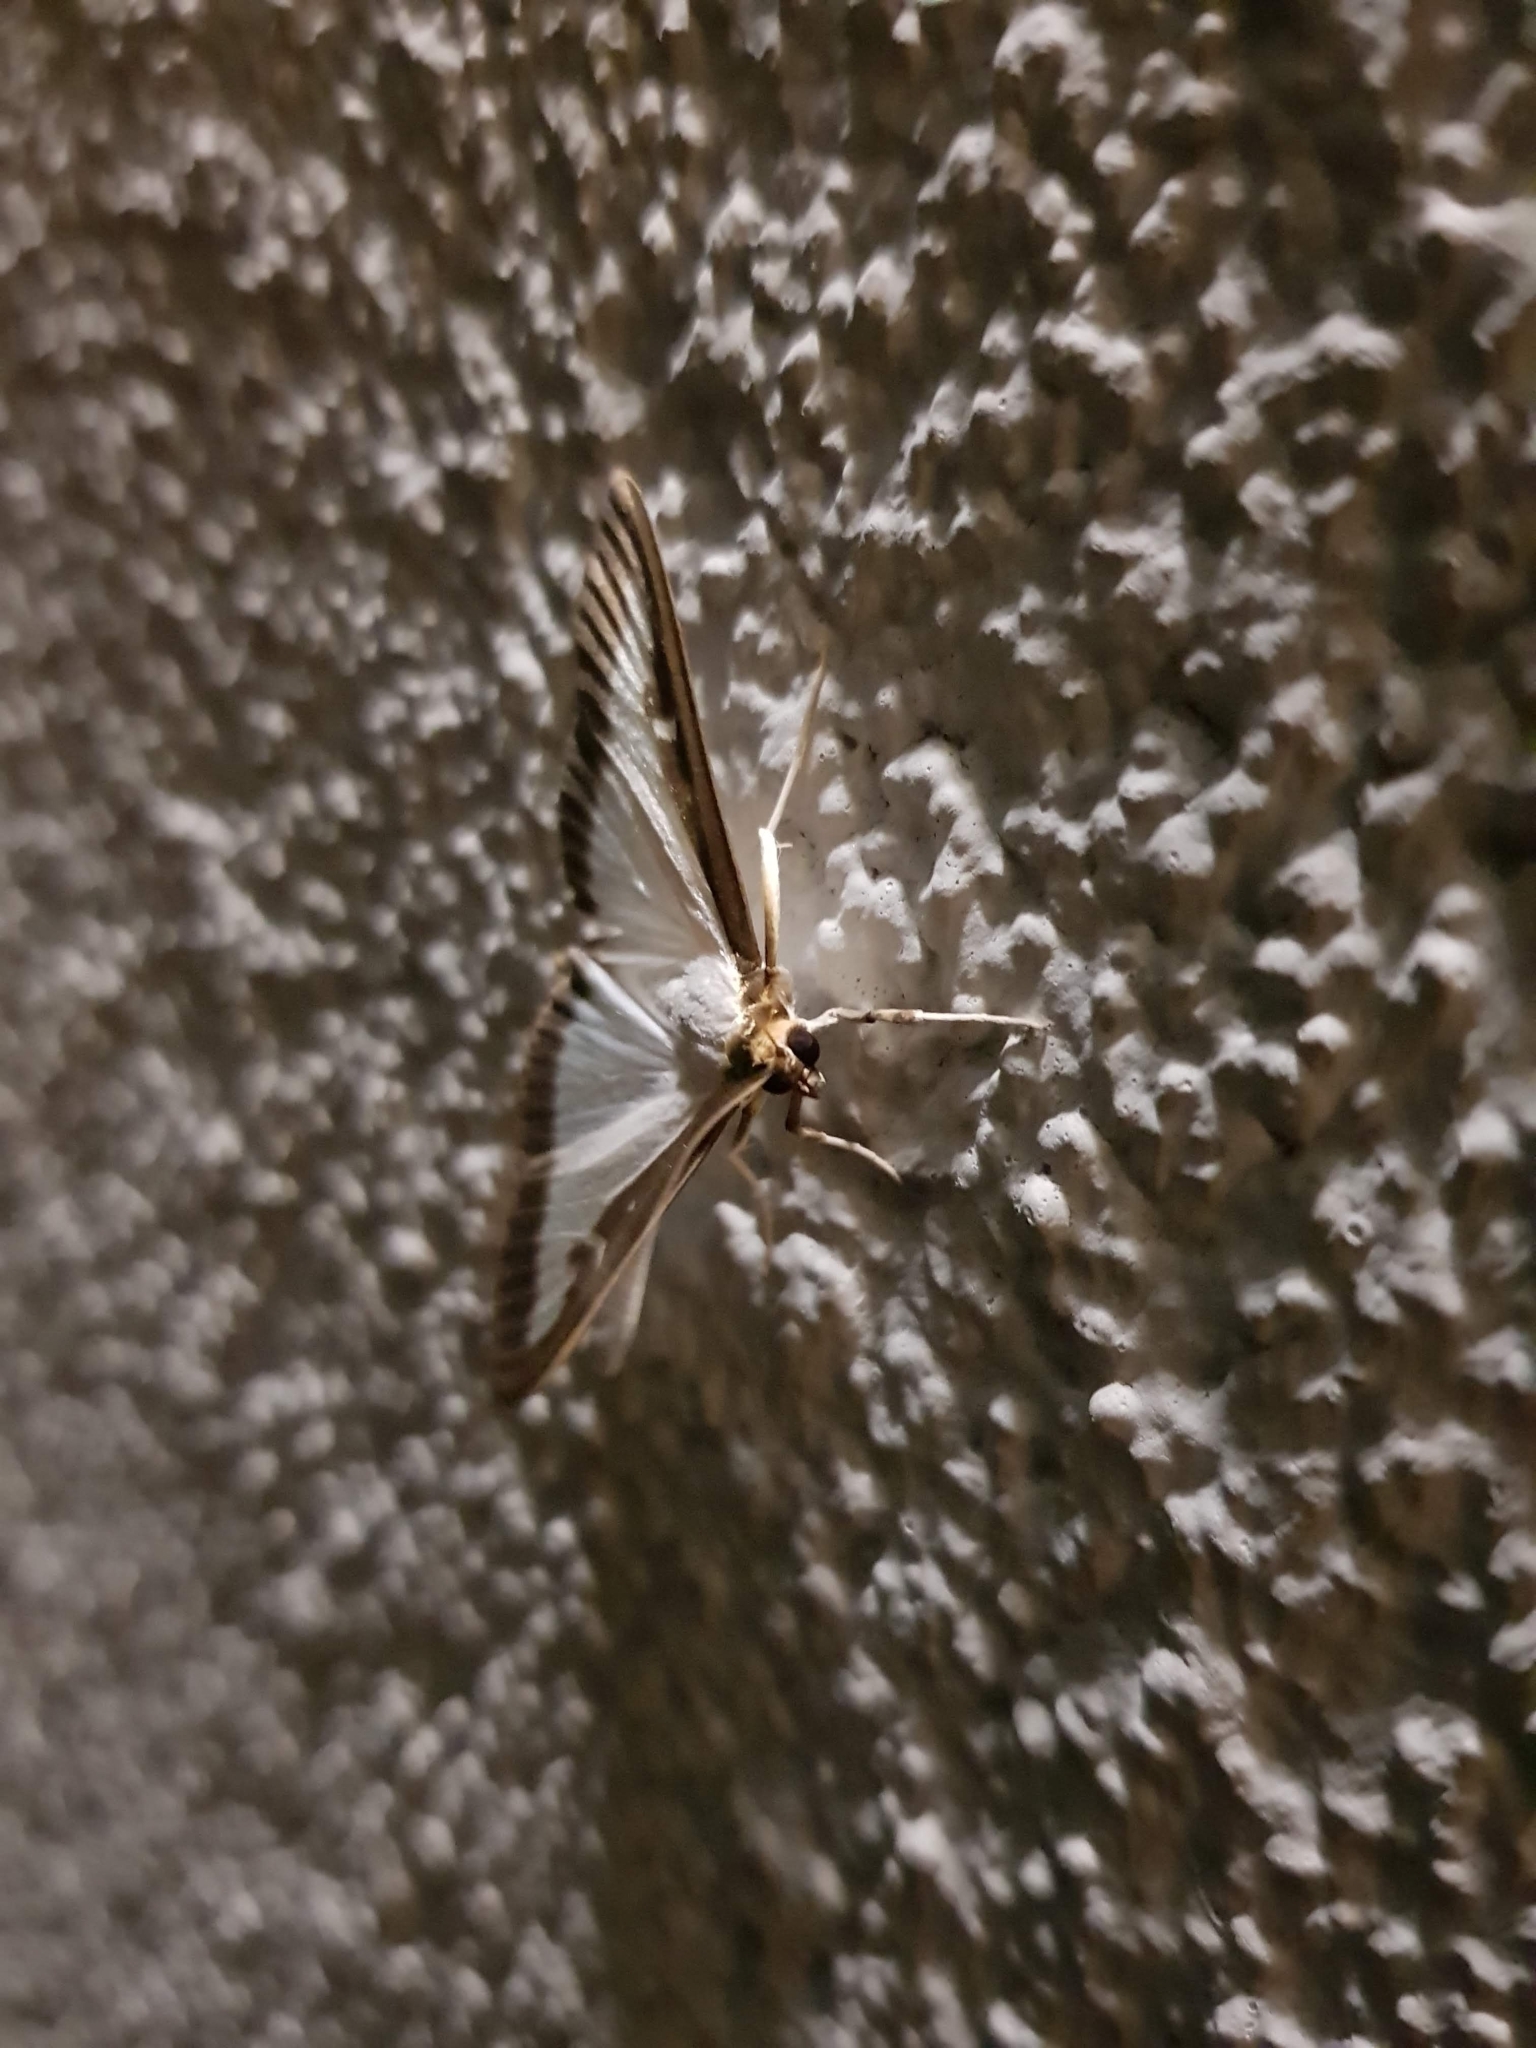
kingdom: Animalia
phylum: Arthropoda
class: Insecta
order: Lepidoptera
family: Crambidae
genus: Cydalima
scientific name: Cydalima perspectalis
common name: Box tree moth
